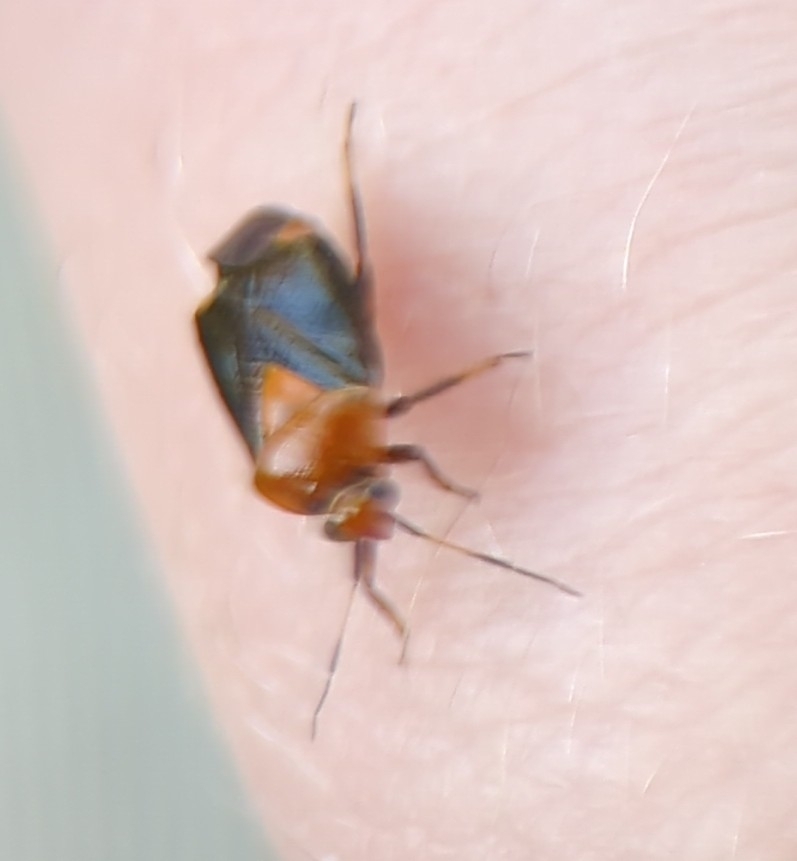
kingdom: Animalia
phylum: Arthropoda
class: Insecta
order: Hemiptera
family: Miridae
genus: Neocapsus
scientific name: Neocapsus cuneatus
